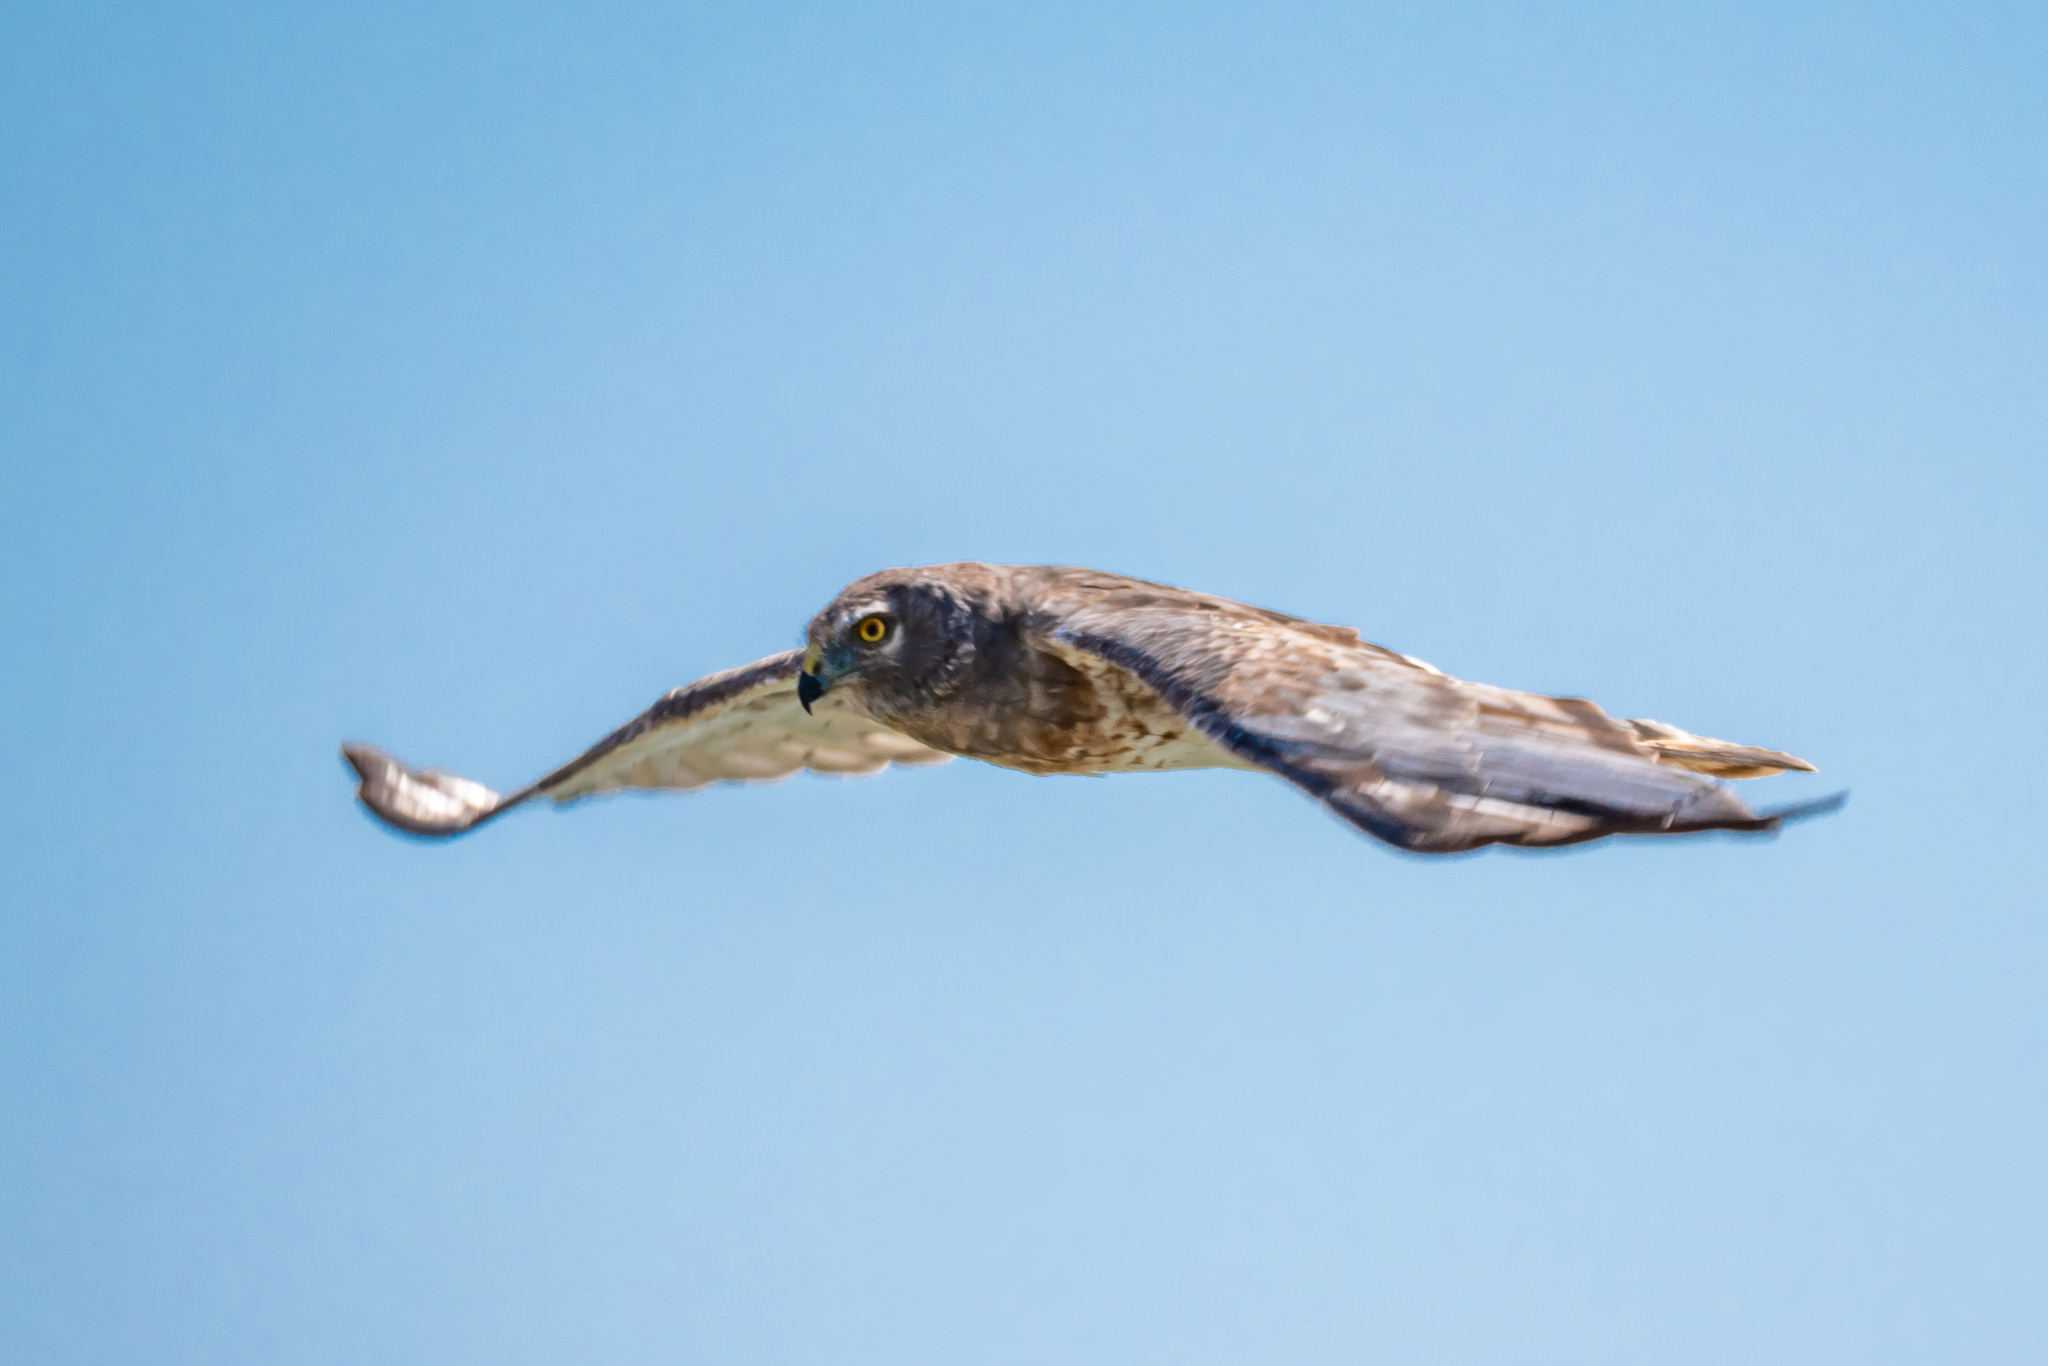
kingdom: Animalia
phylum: Chordata
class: Aves
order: Accipitriformes
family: Accipitridae
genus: Circus
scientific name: Circus cyaneus
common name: Hen harrier
